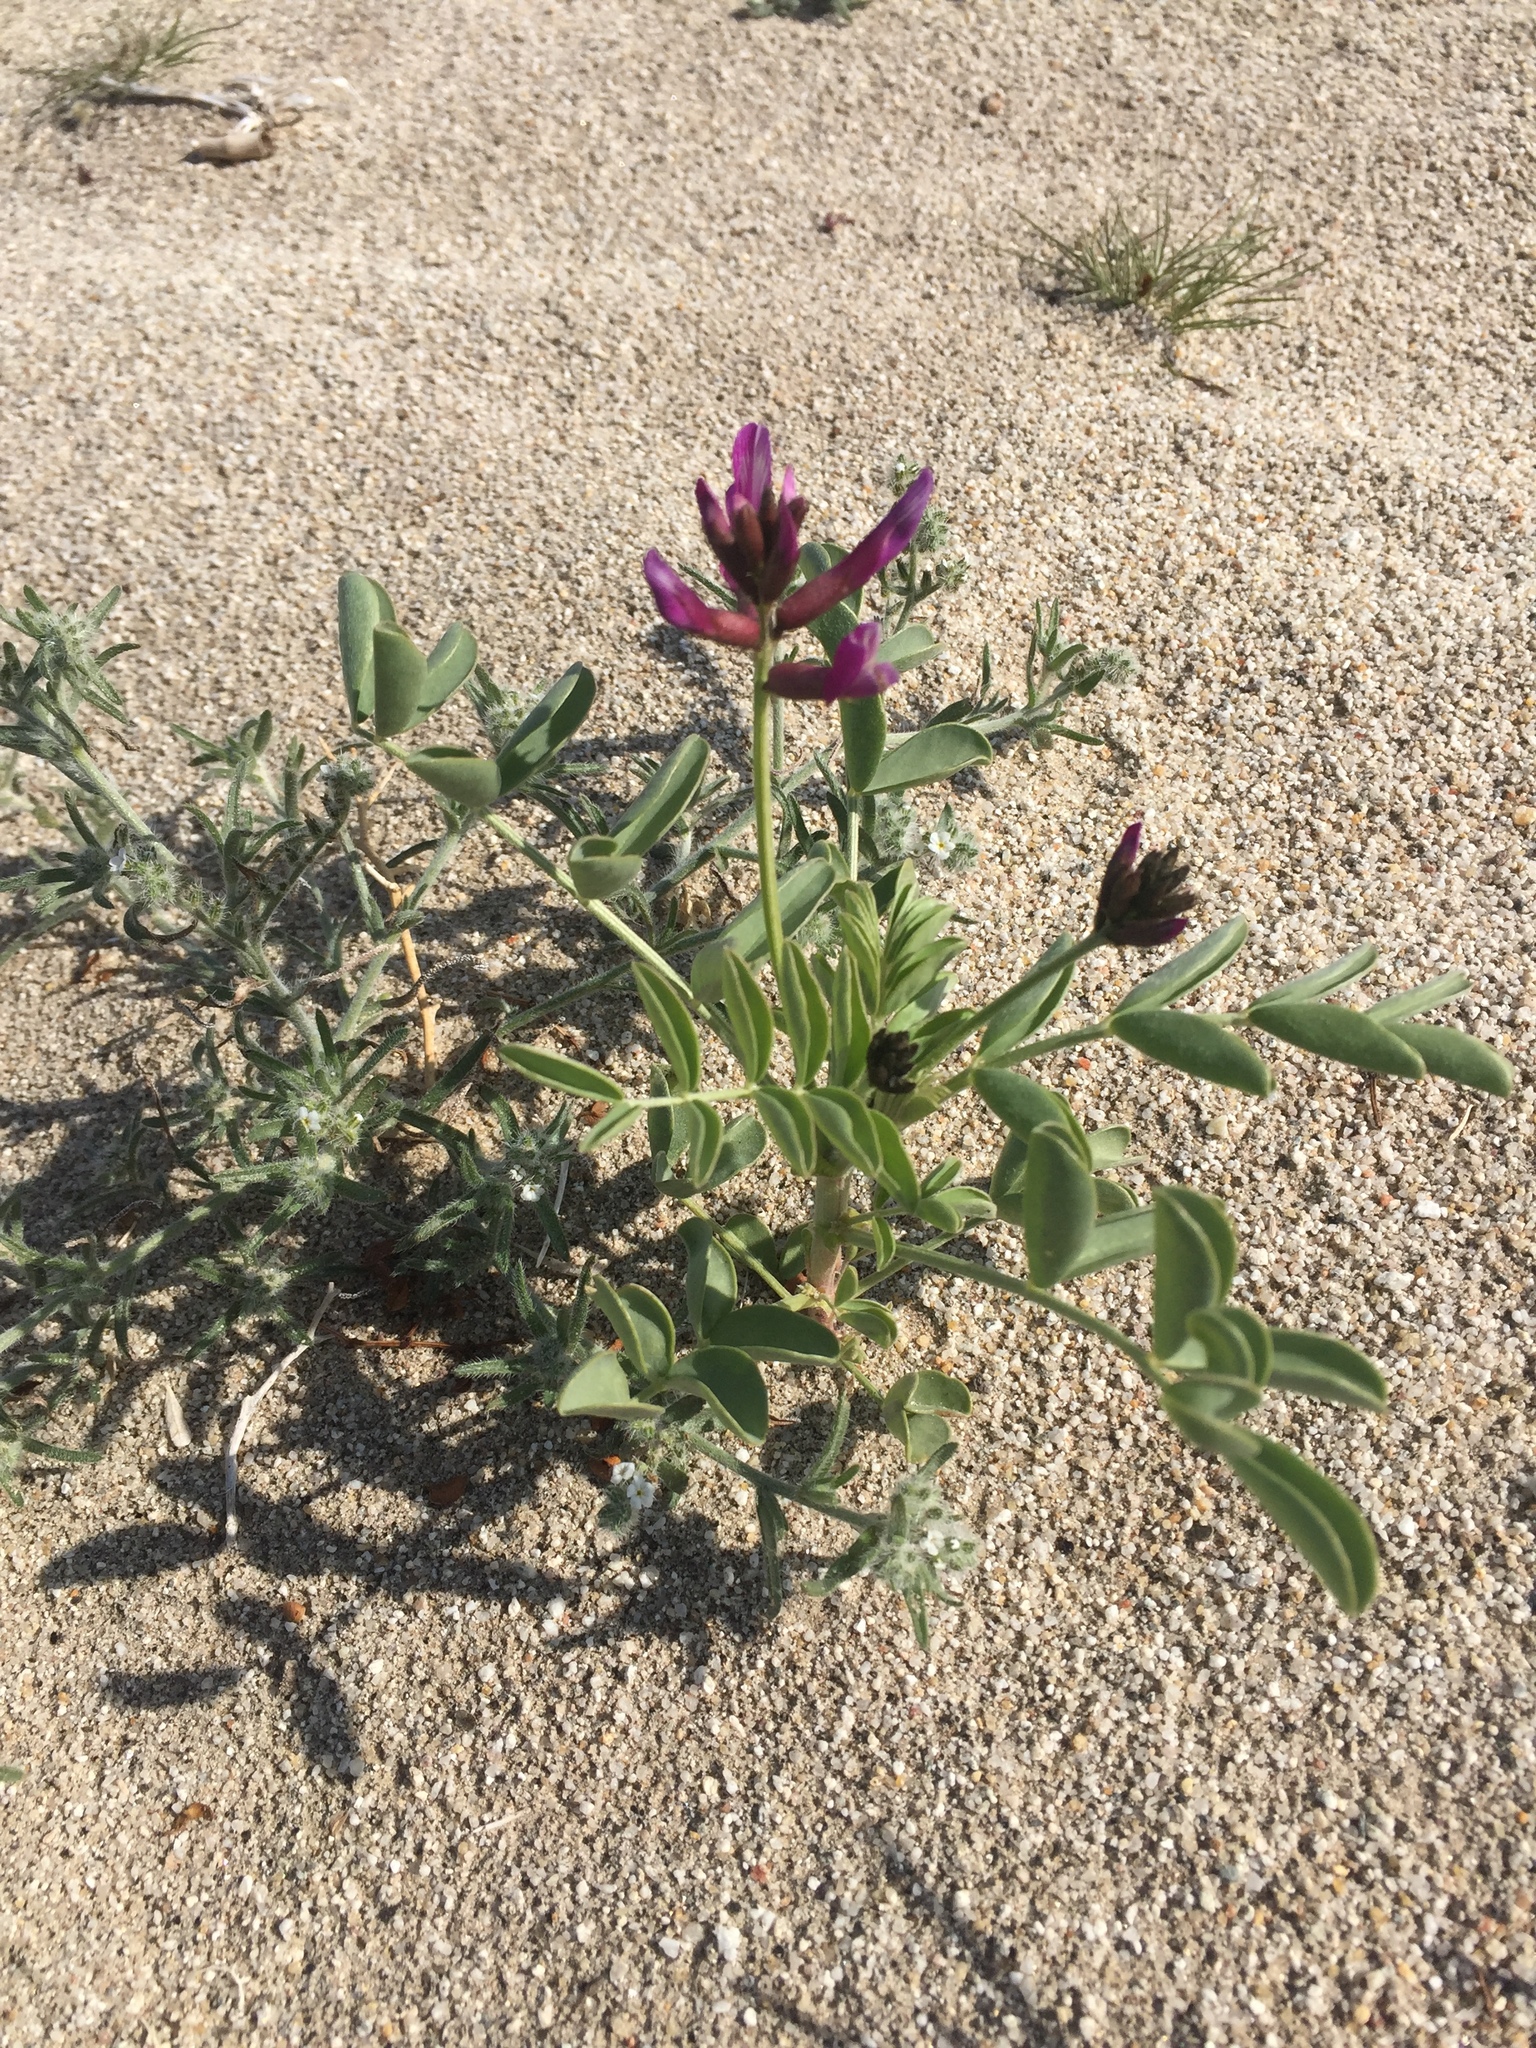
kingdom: Plantae
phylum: Tracheophyta
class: Magnoliopsida
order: Fabales
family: Fabaceae
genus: Astragalus
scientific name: Astragalus crotalariae
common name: Salton milkvetch
